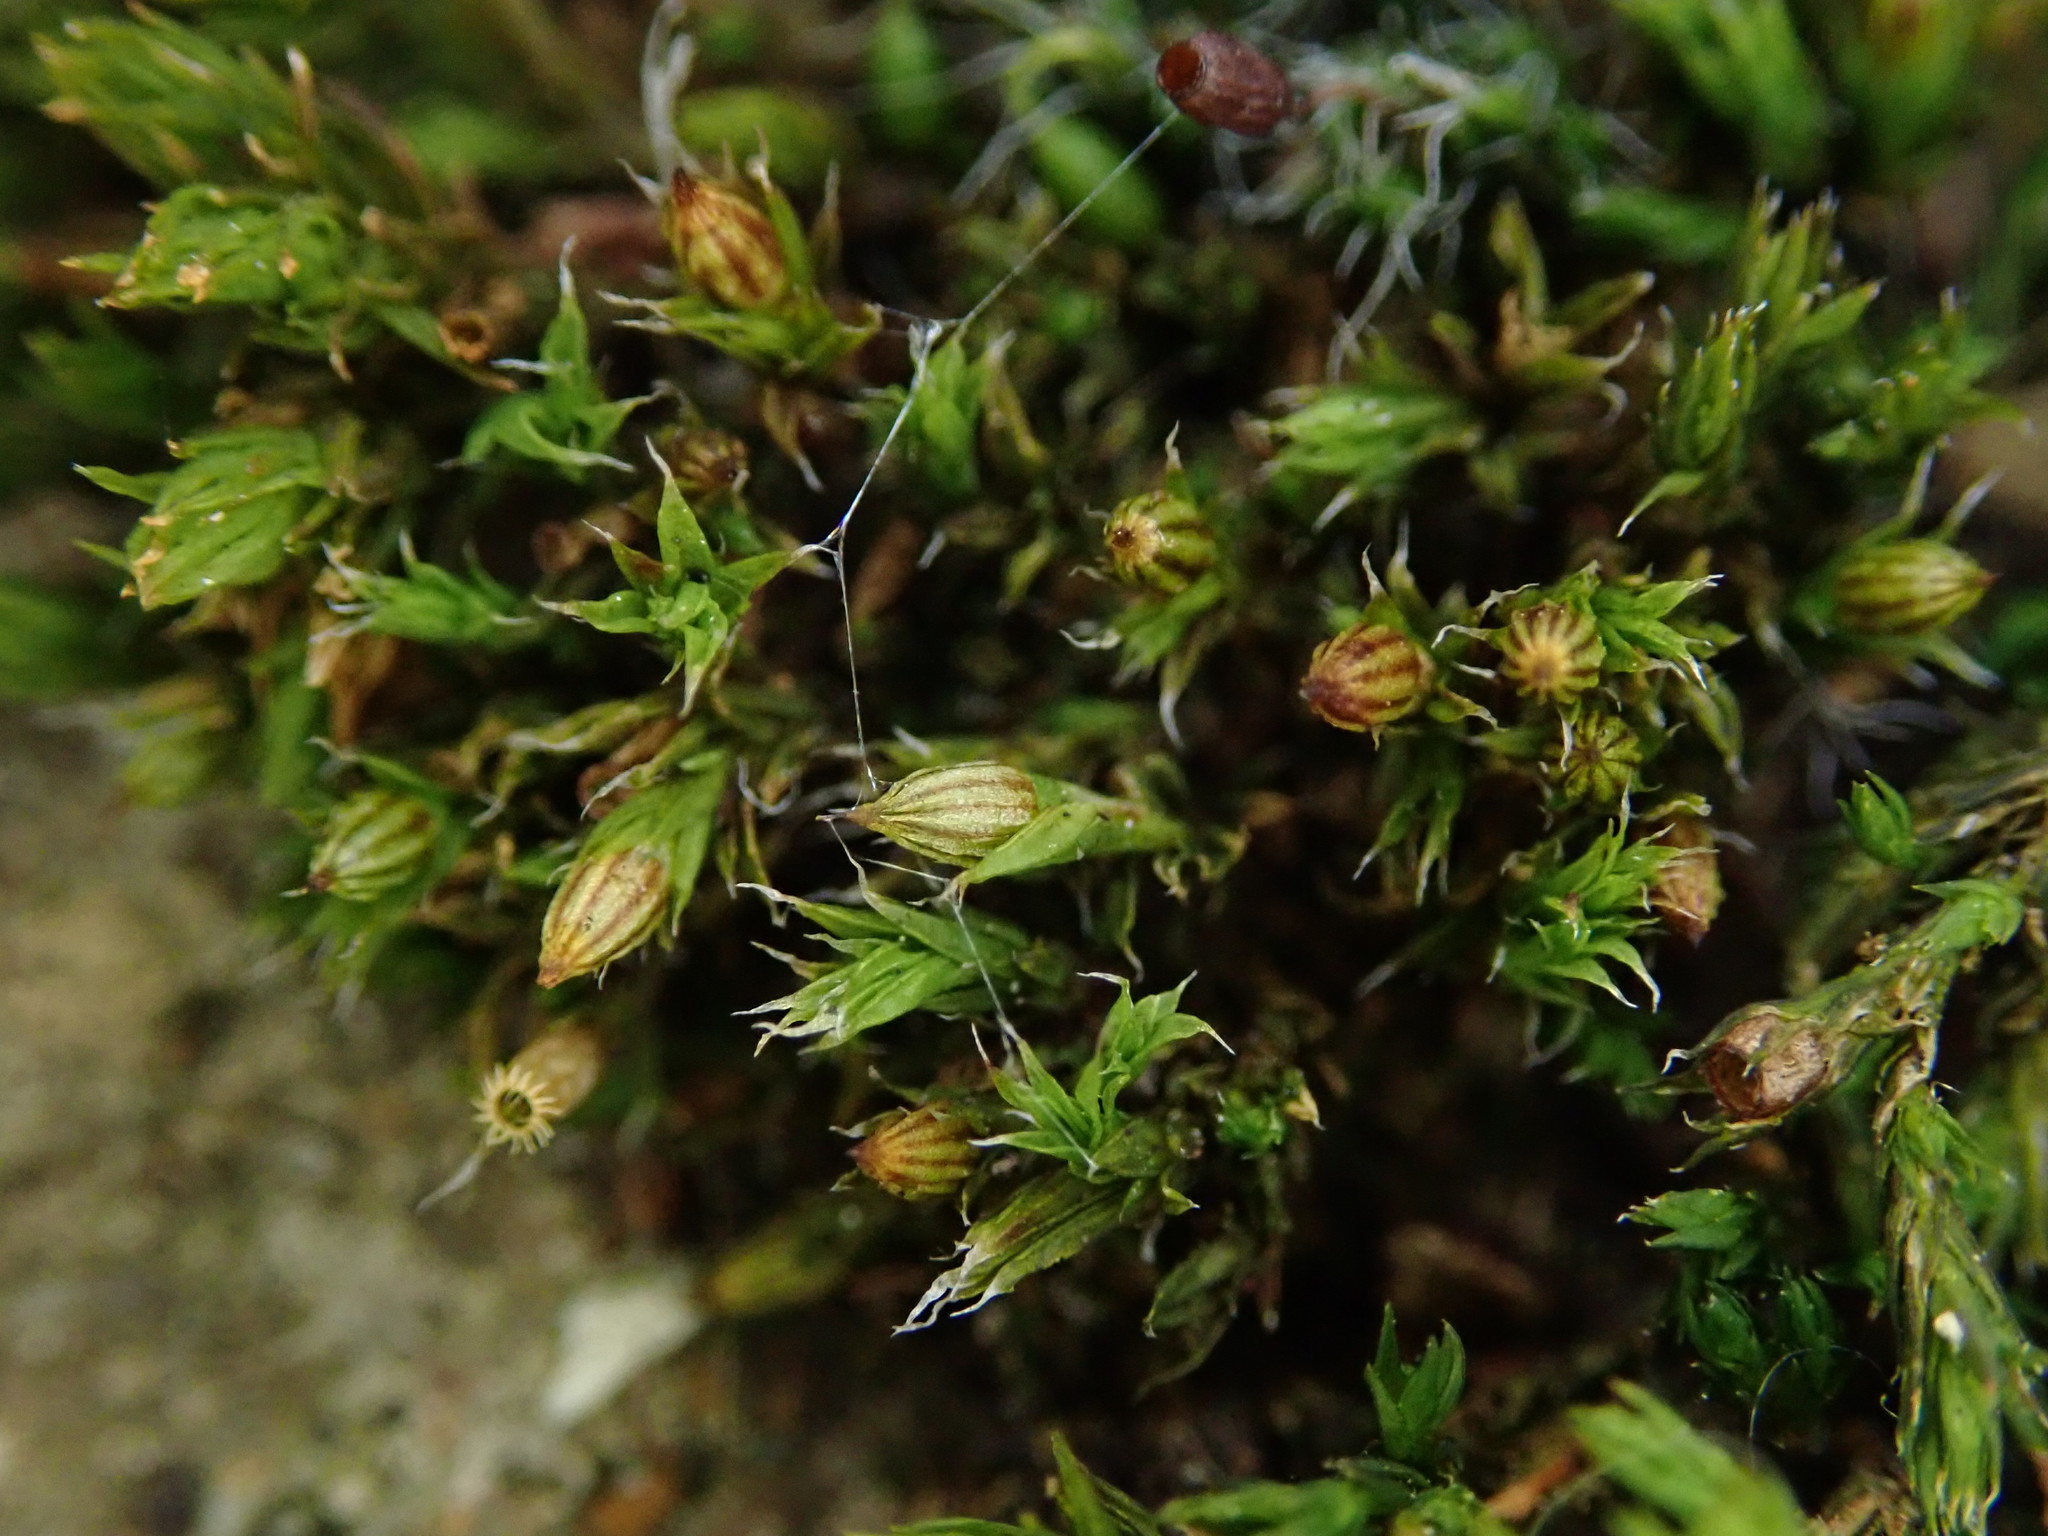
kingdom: Plantae
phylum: Bryophyta
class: Bryopsida
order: Orthotrichales
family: Orthotrichaceae
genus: Orthotrichum
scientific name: Orthotrichum diaphanum
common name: White-tipped bristle-moss
